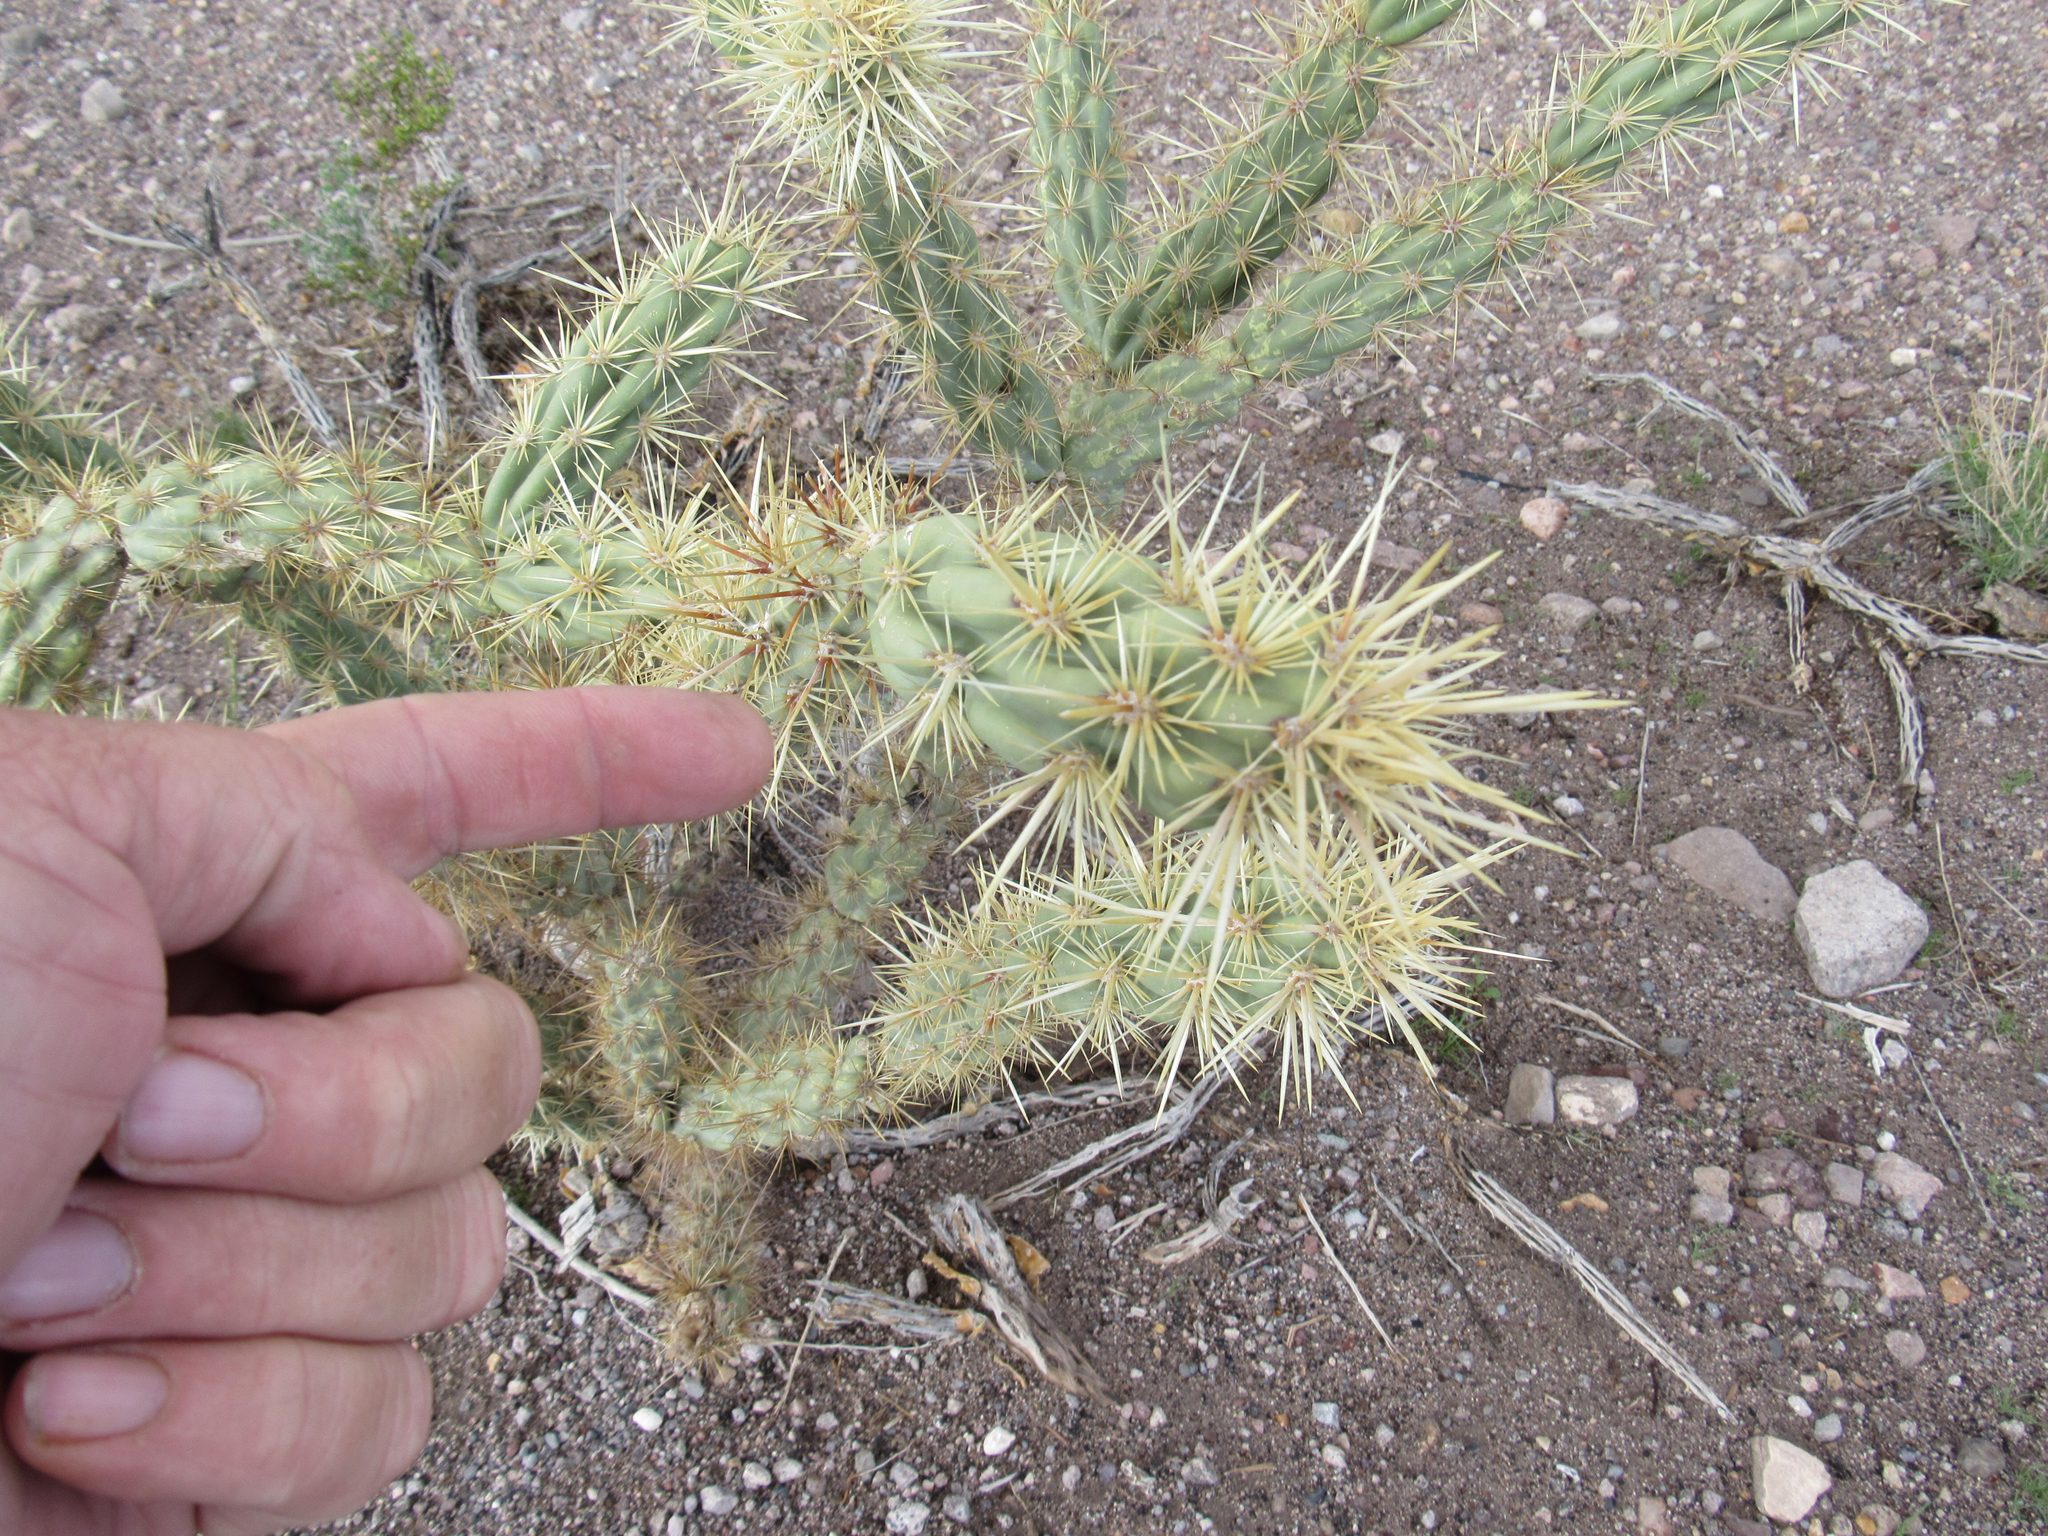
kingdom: Plantae
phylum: Tracheophyta
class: Magnoliopsida
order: Caryophyllales
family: Cactaceae
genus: Cylindropuntia
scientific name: Cylindropuntia acanthocarpa
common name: Buckhorn cholla
